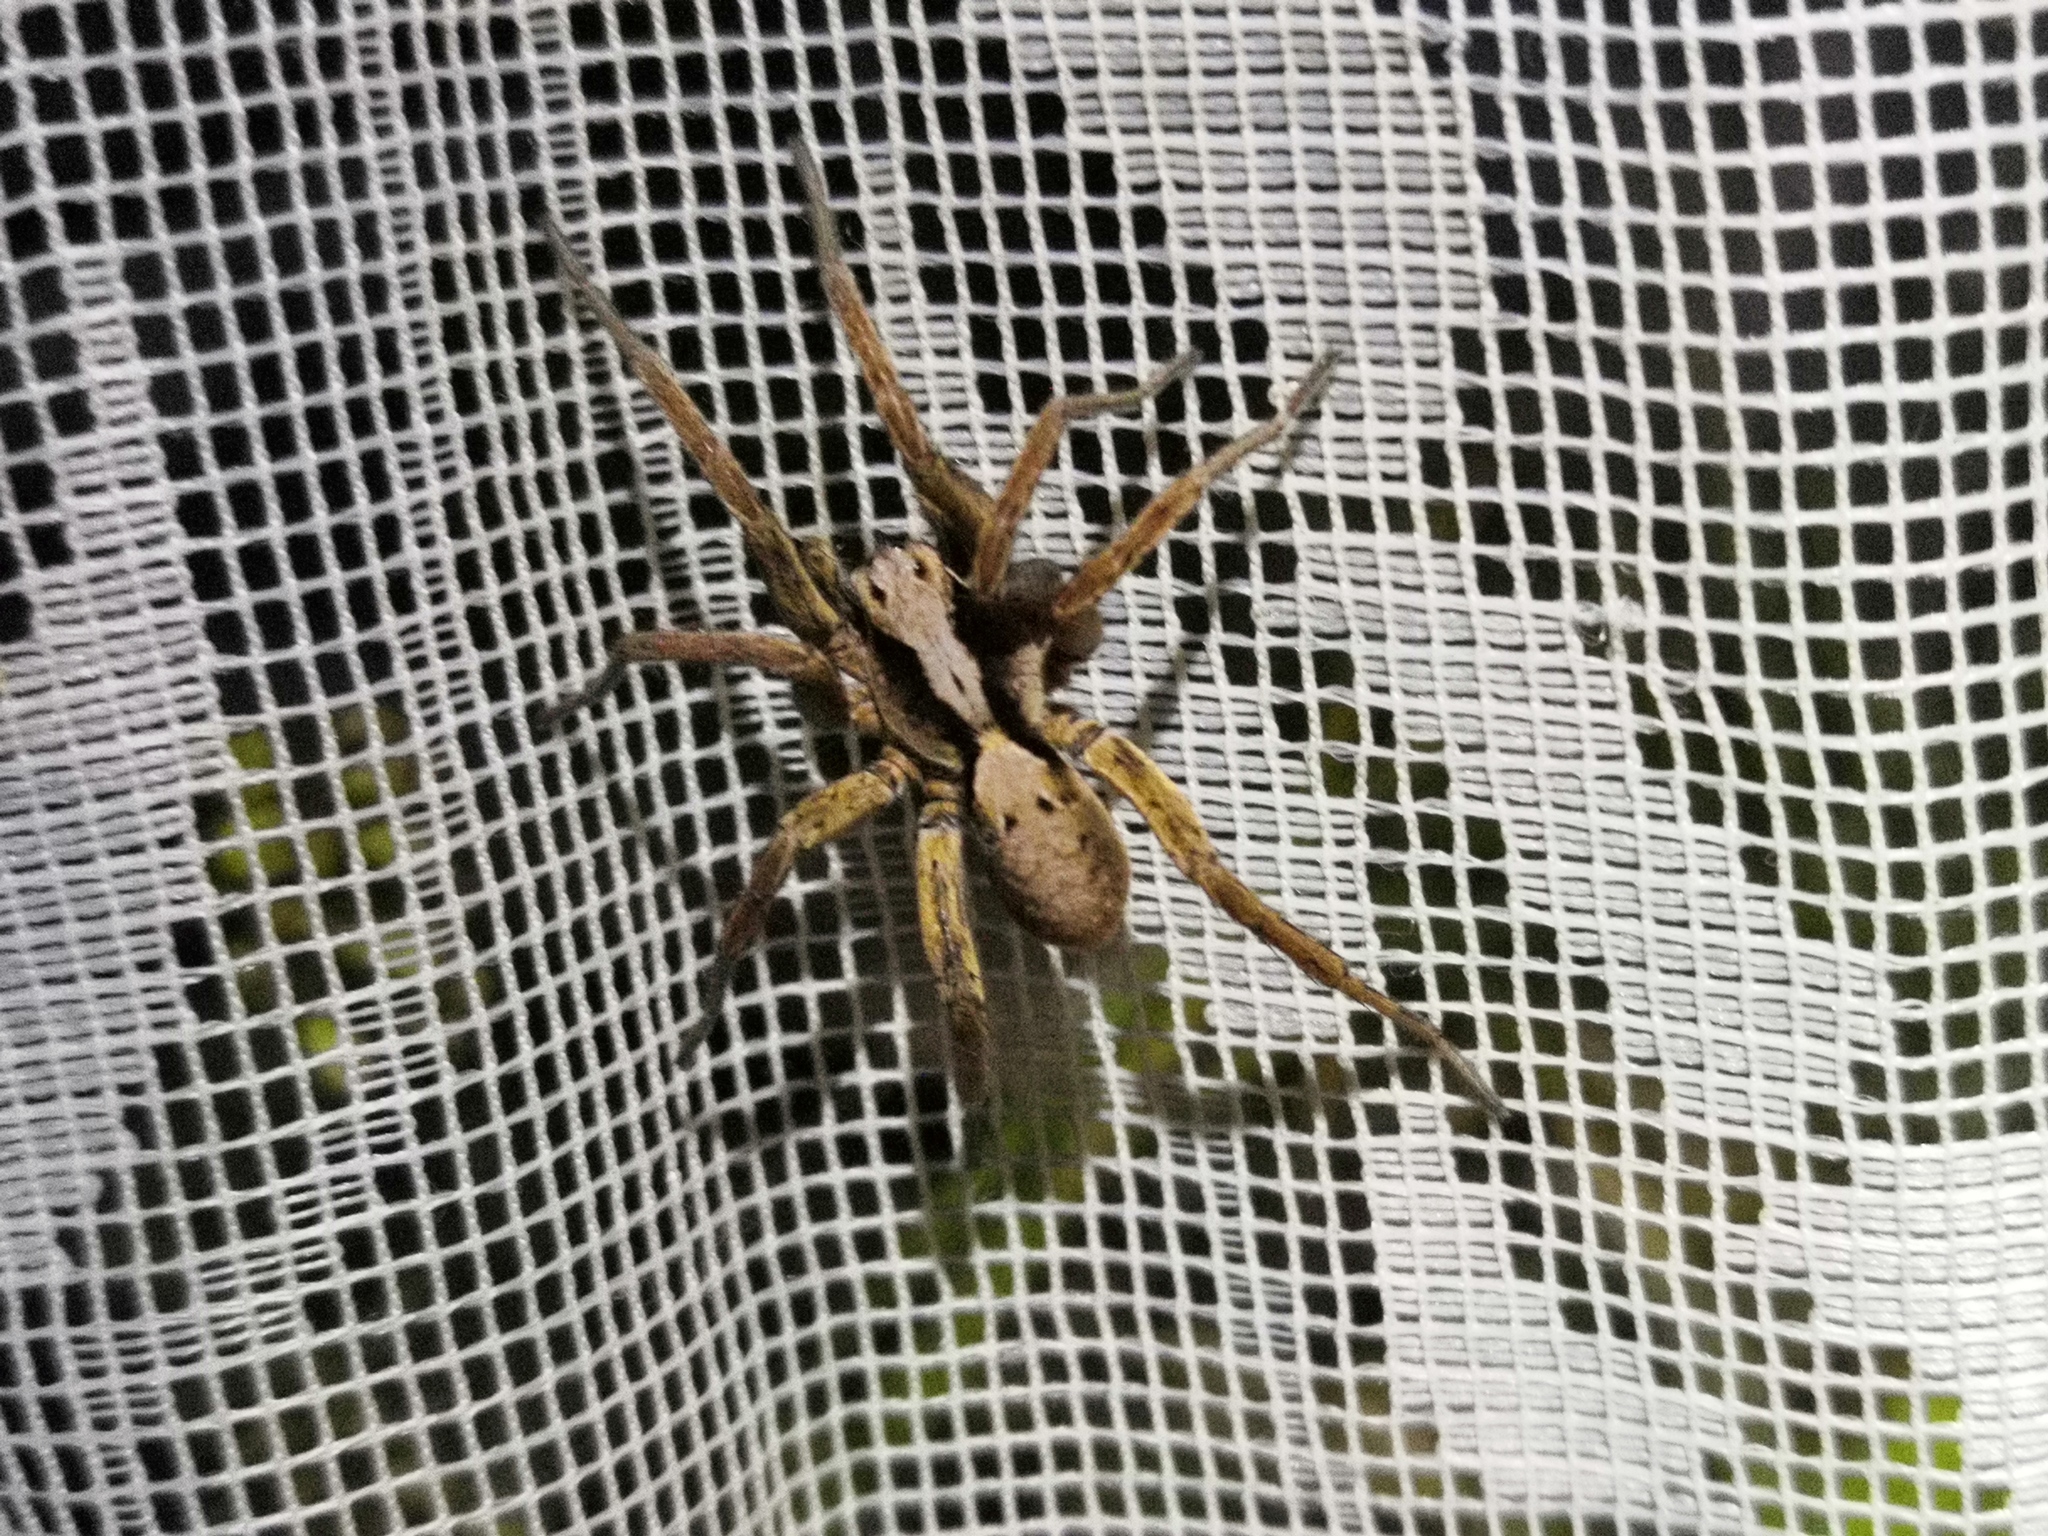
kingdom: Animalia
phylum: Arthropoda
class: Arachnida
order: Araneae
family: Lycosidae
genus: Alopecosa
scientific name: Alopecosa inquilina
